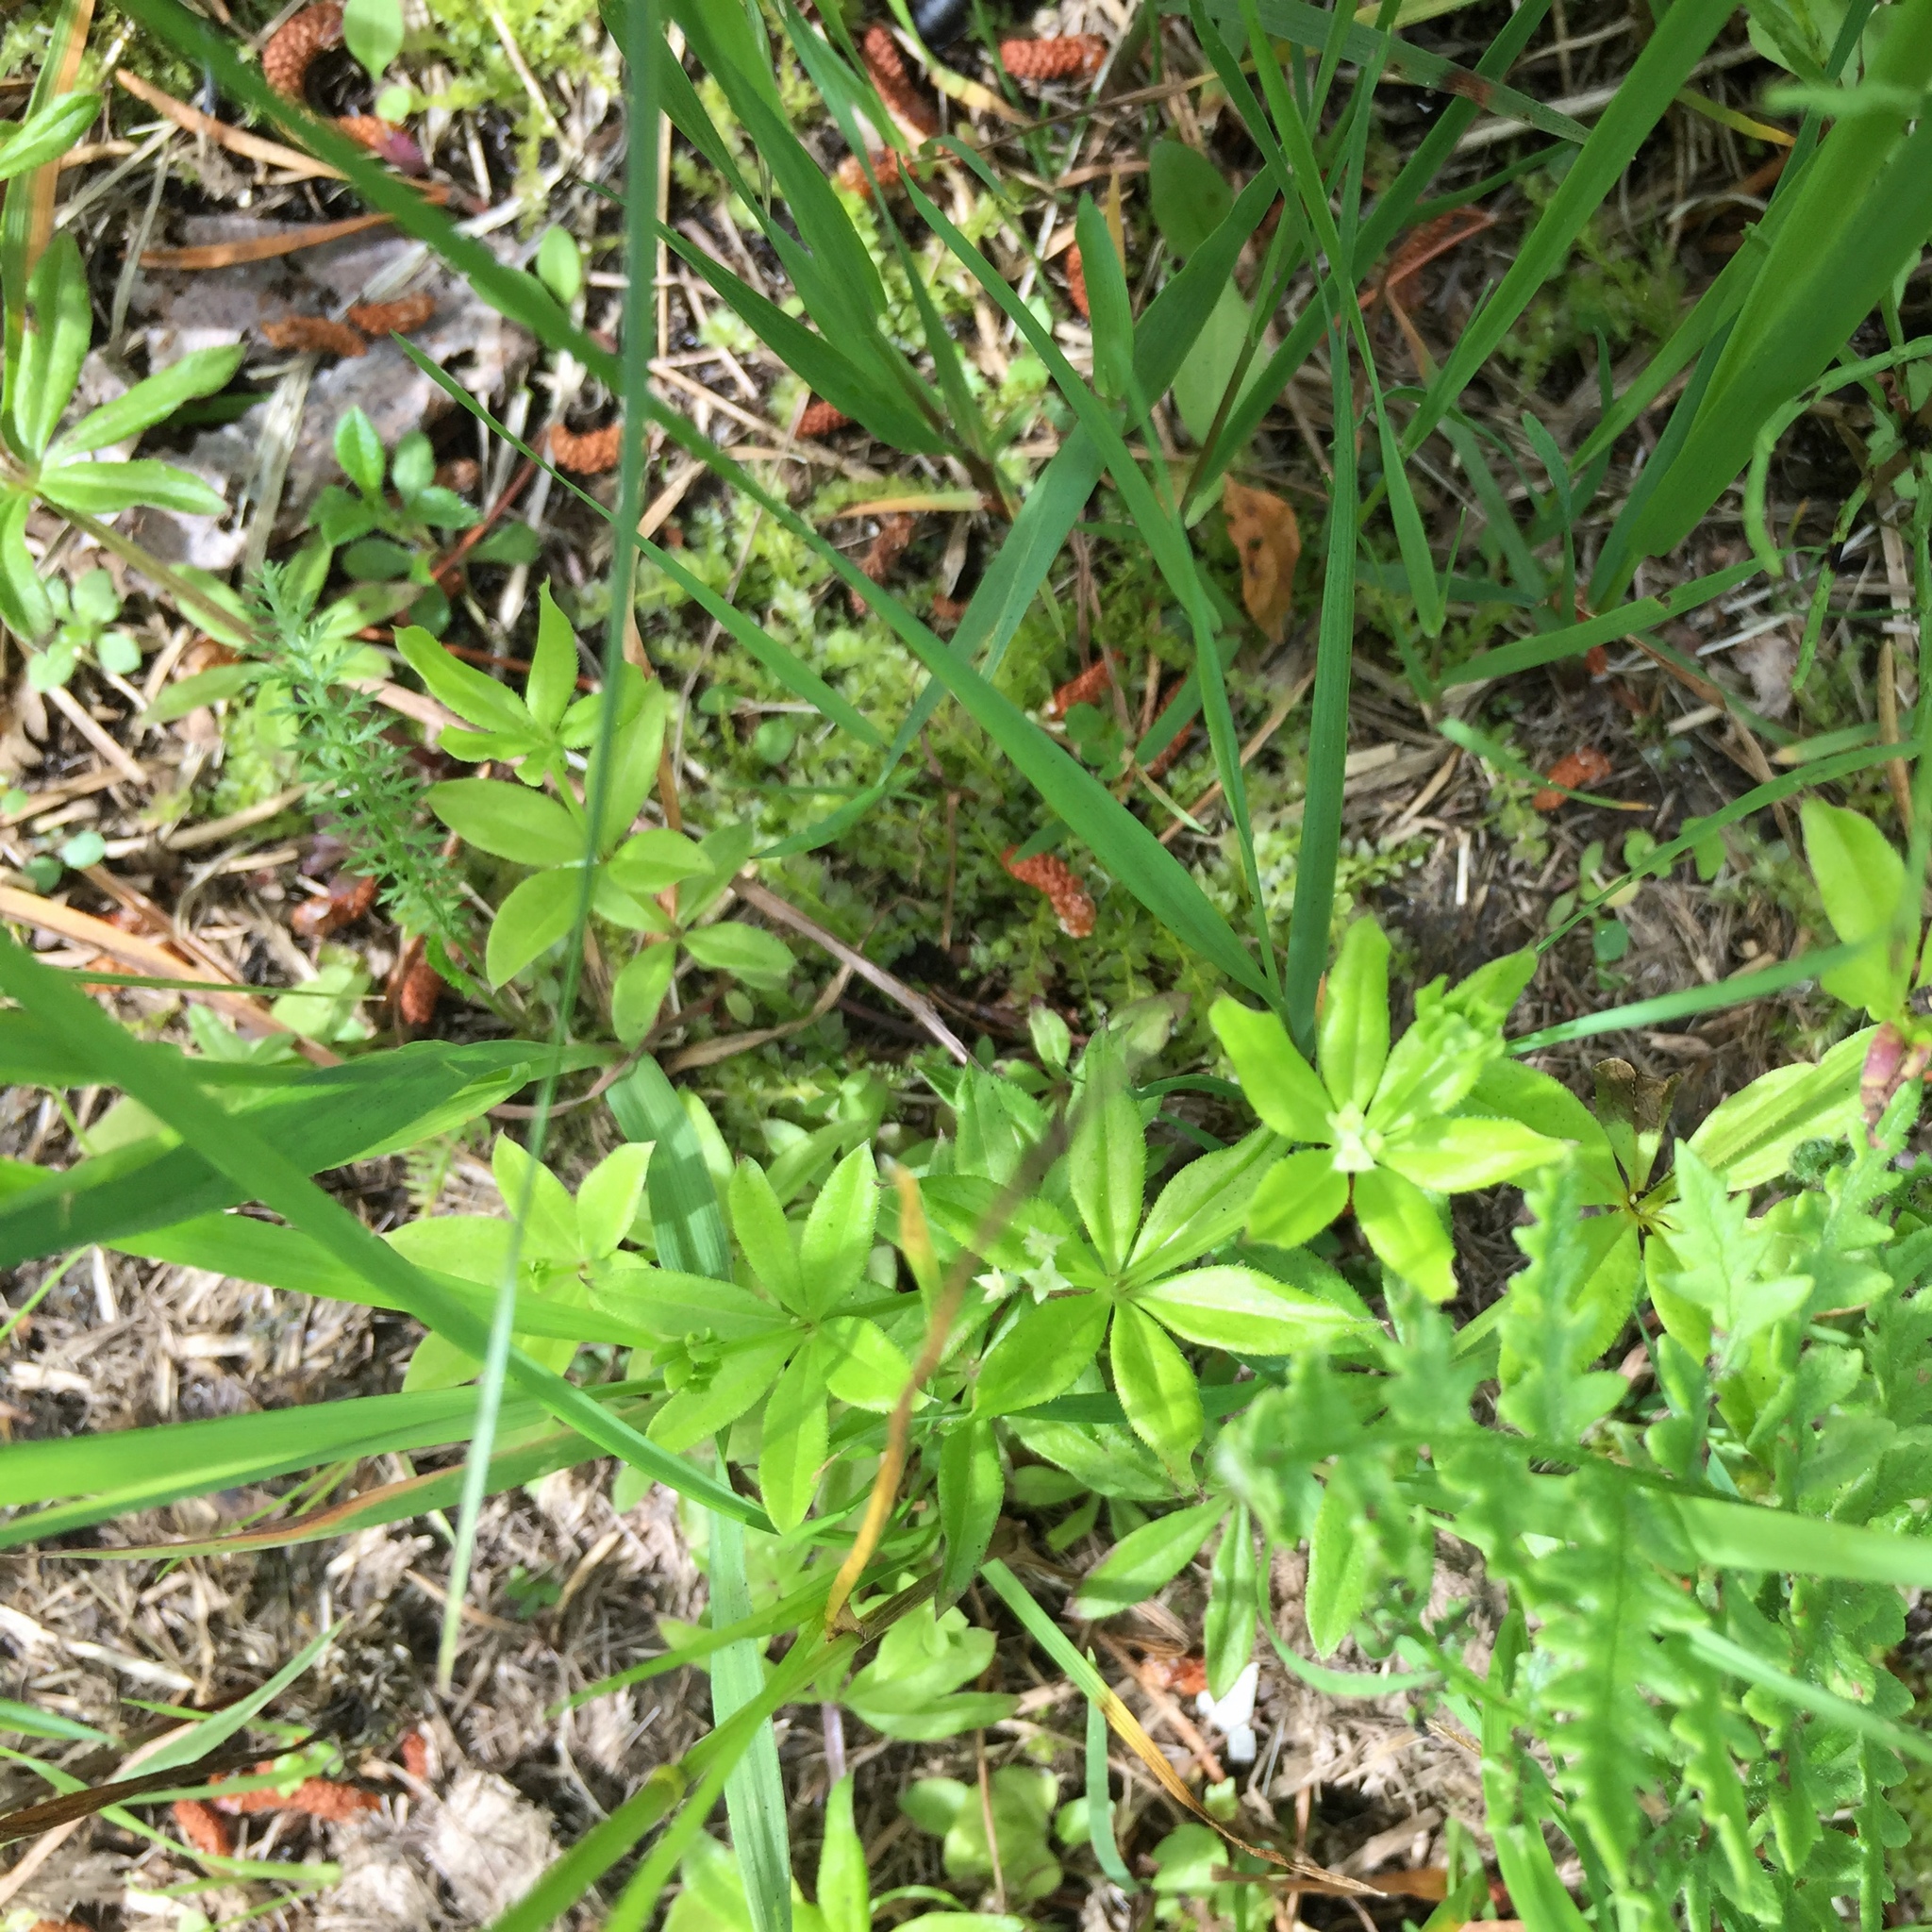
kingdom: Plantae
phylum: Tracheophyta
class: Magnoliopsida
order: Gentianales
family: Rubiaceae
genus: Galium
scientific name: Galium triflorum
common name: Fragrant bedstraw
